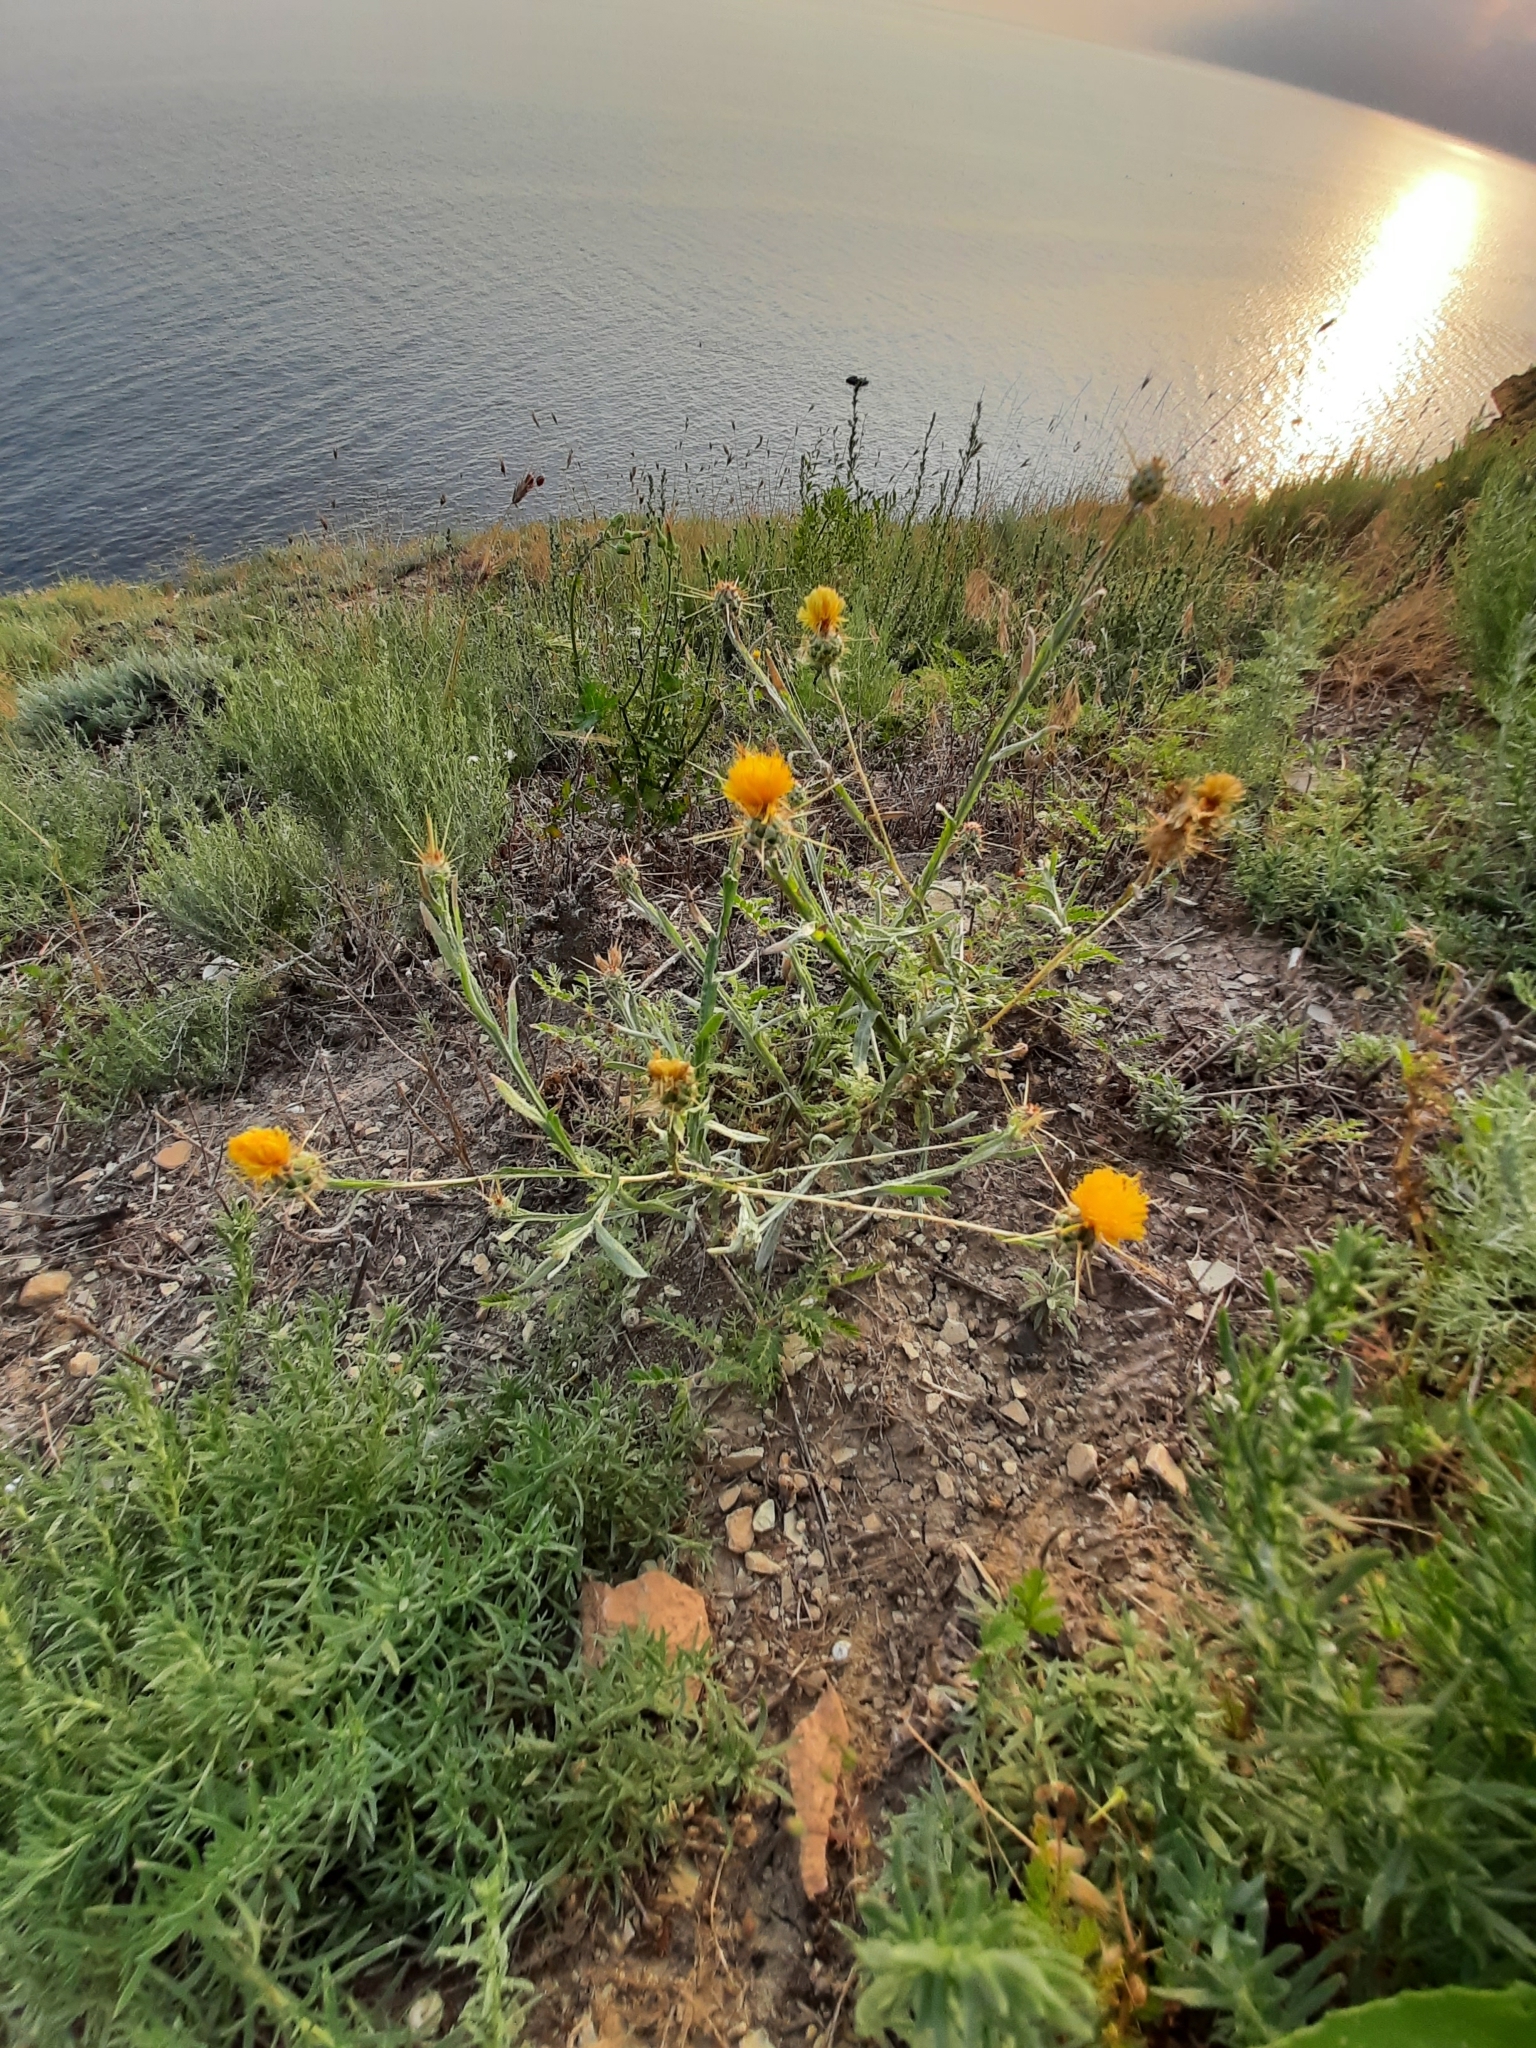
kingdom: Plantae
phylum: Tracheophyta
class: Magnoliopsida
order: Asterales
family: Asteraceae
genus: Centaurea
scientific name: Centaurea solstitialis
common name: Yellow star-thistle
